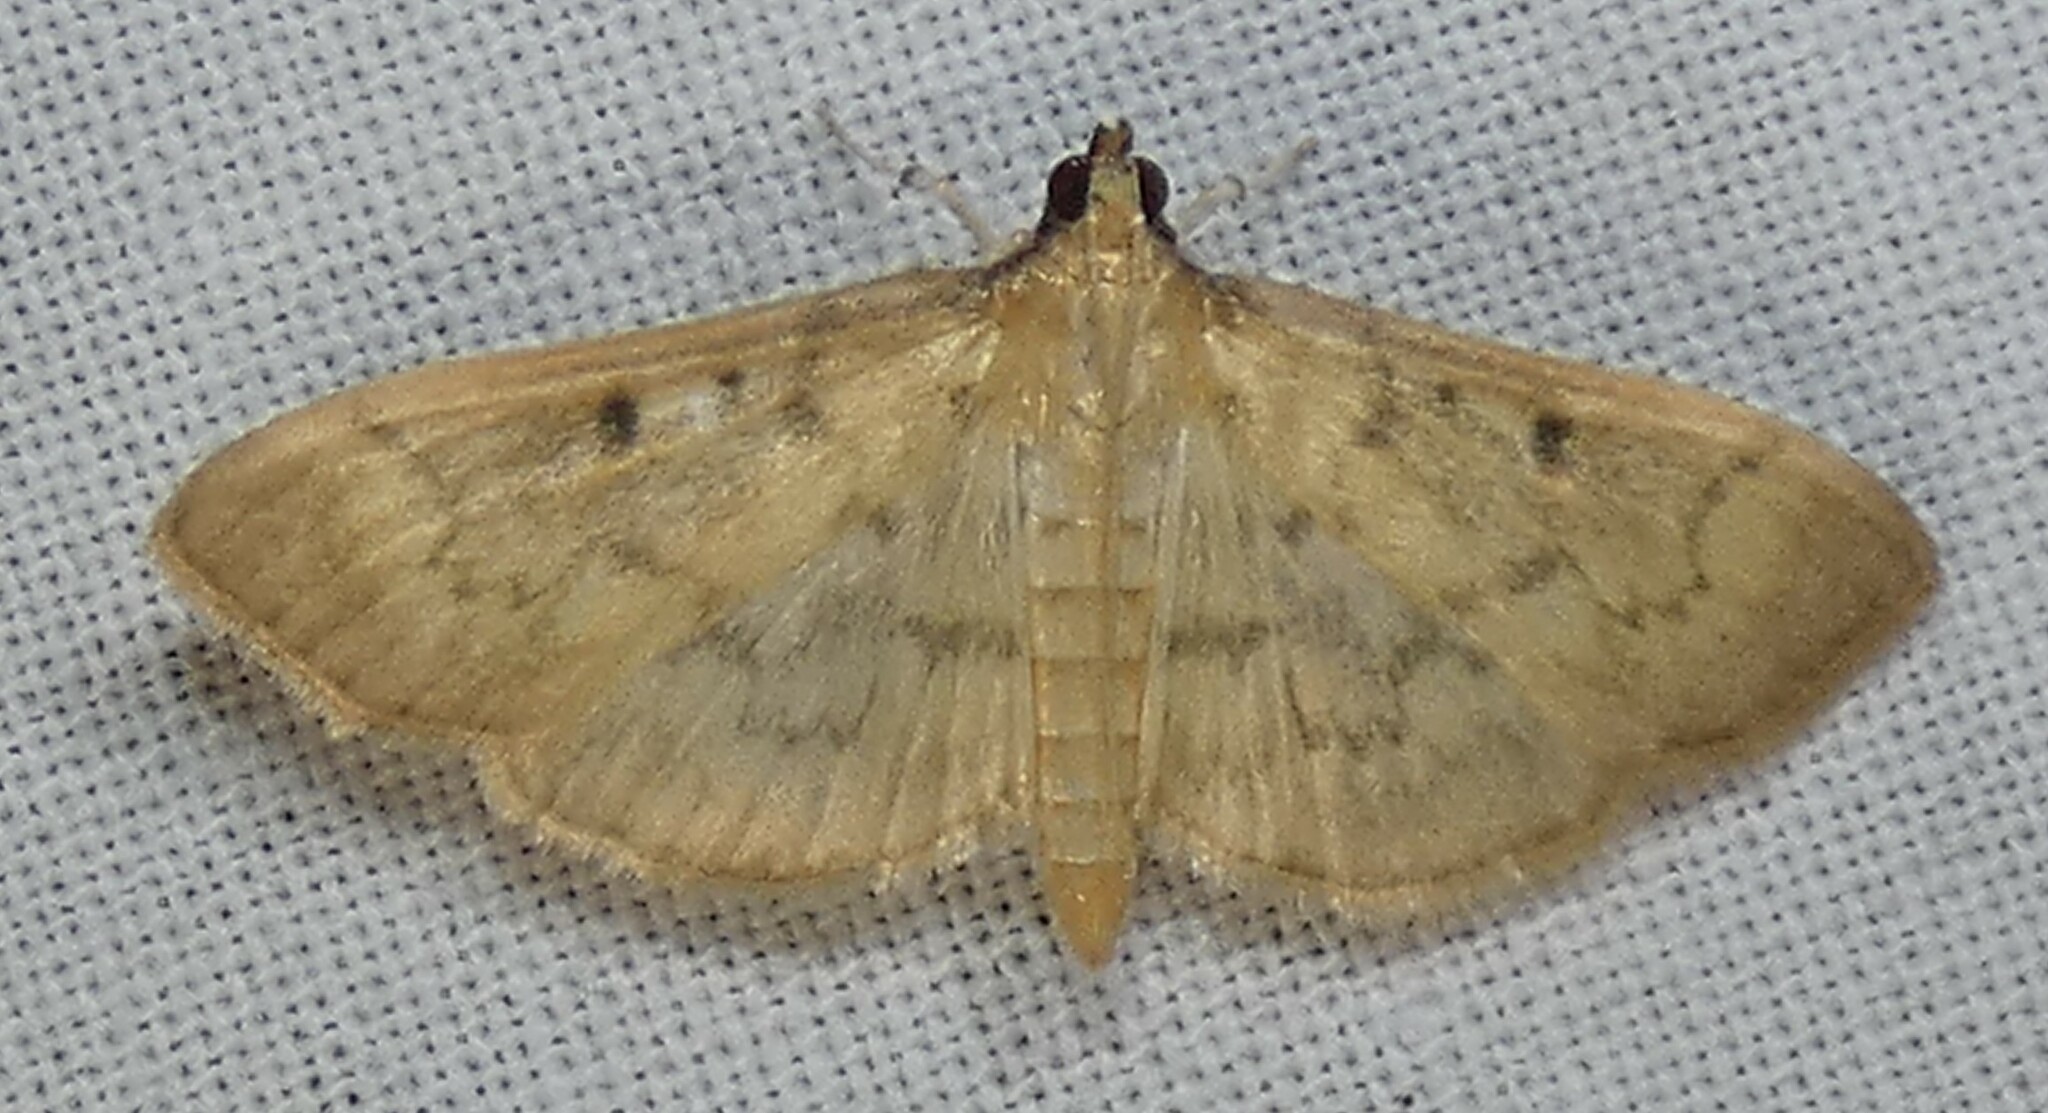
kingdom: Animalia
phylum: Arthropoda
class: Insecta
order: Lepidoptera
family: Crambidae
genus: Herpetogramma
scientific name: Herpetogramma fluctuosalis
